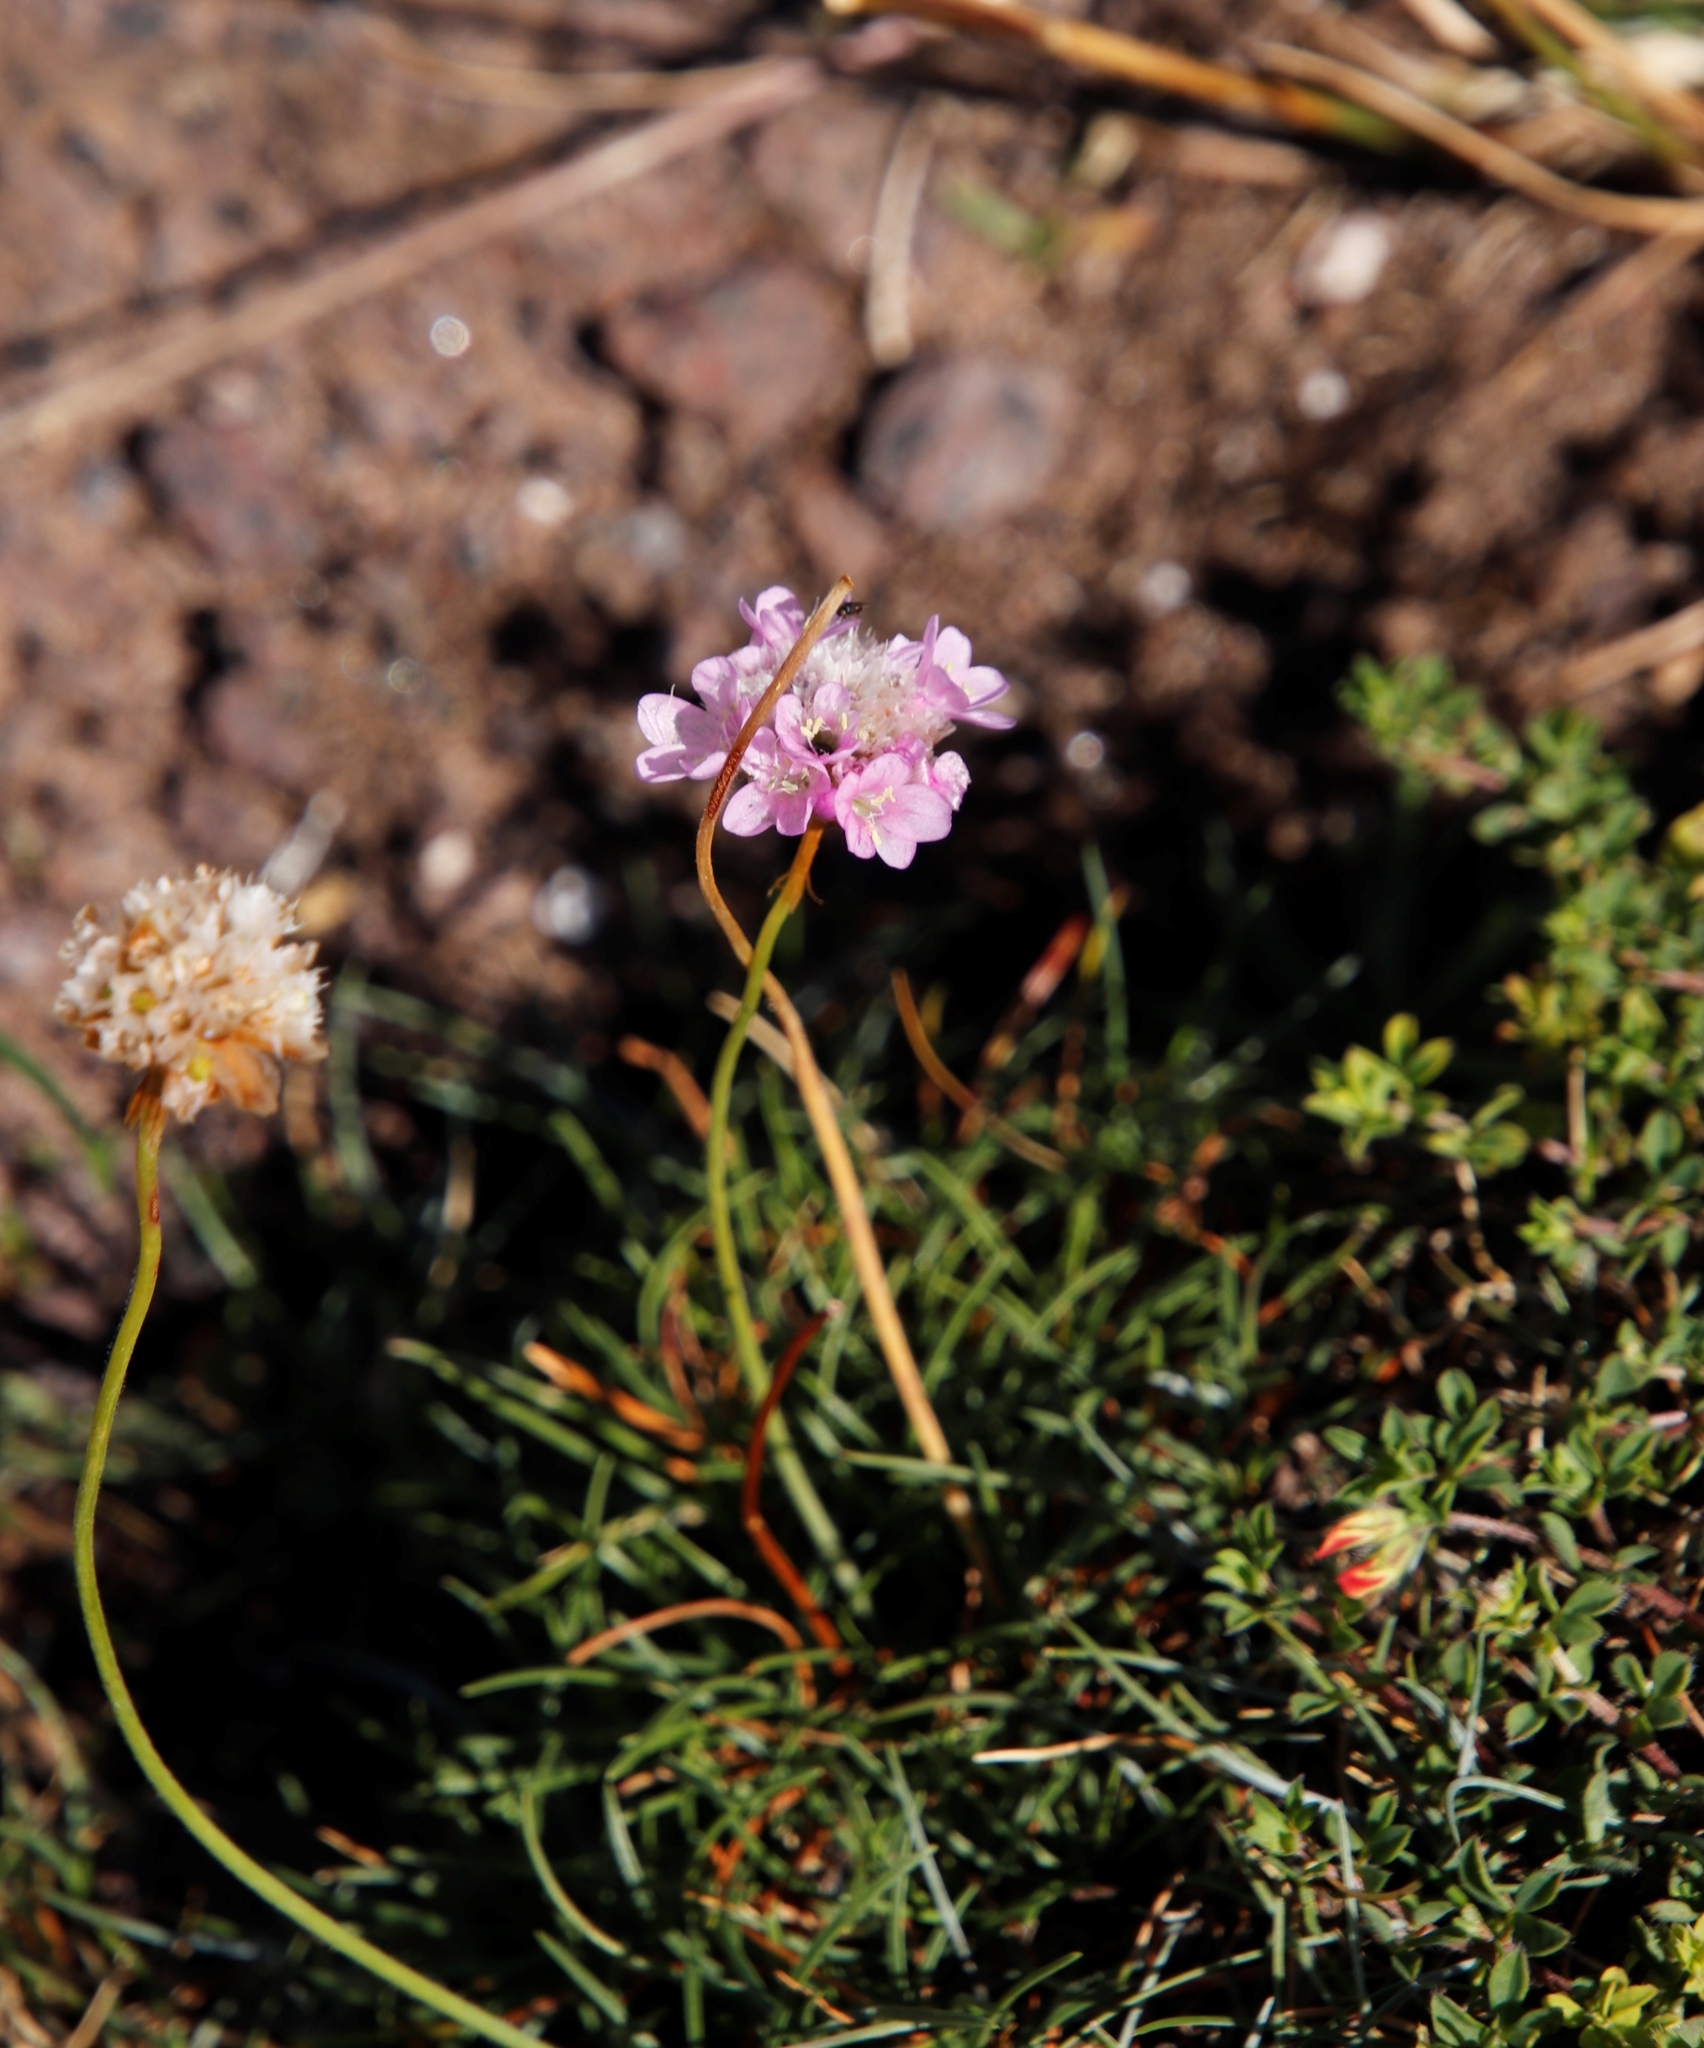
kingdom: Plantae
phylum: Tracheophyta
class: Magnoliopsida
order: Caryophyllales
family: Plumbaginaceae
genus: Armeria
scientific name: Armeria maritima
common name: Thrift
